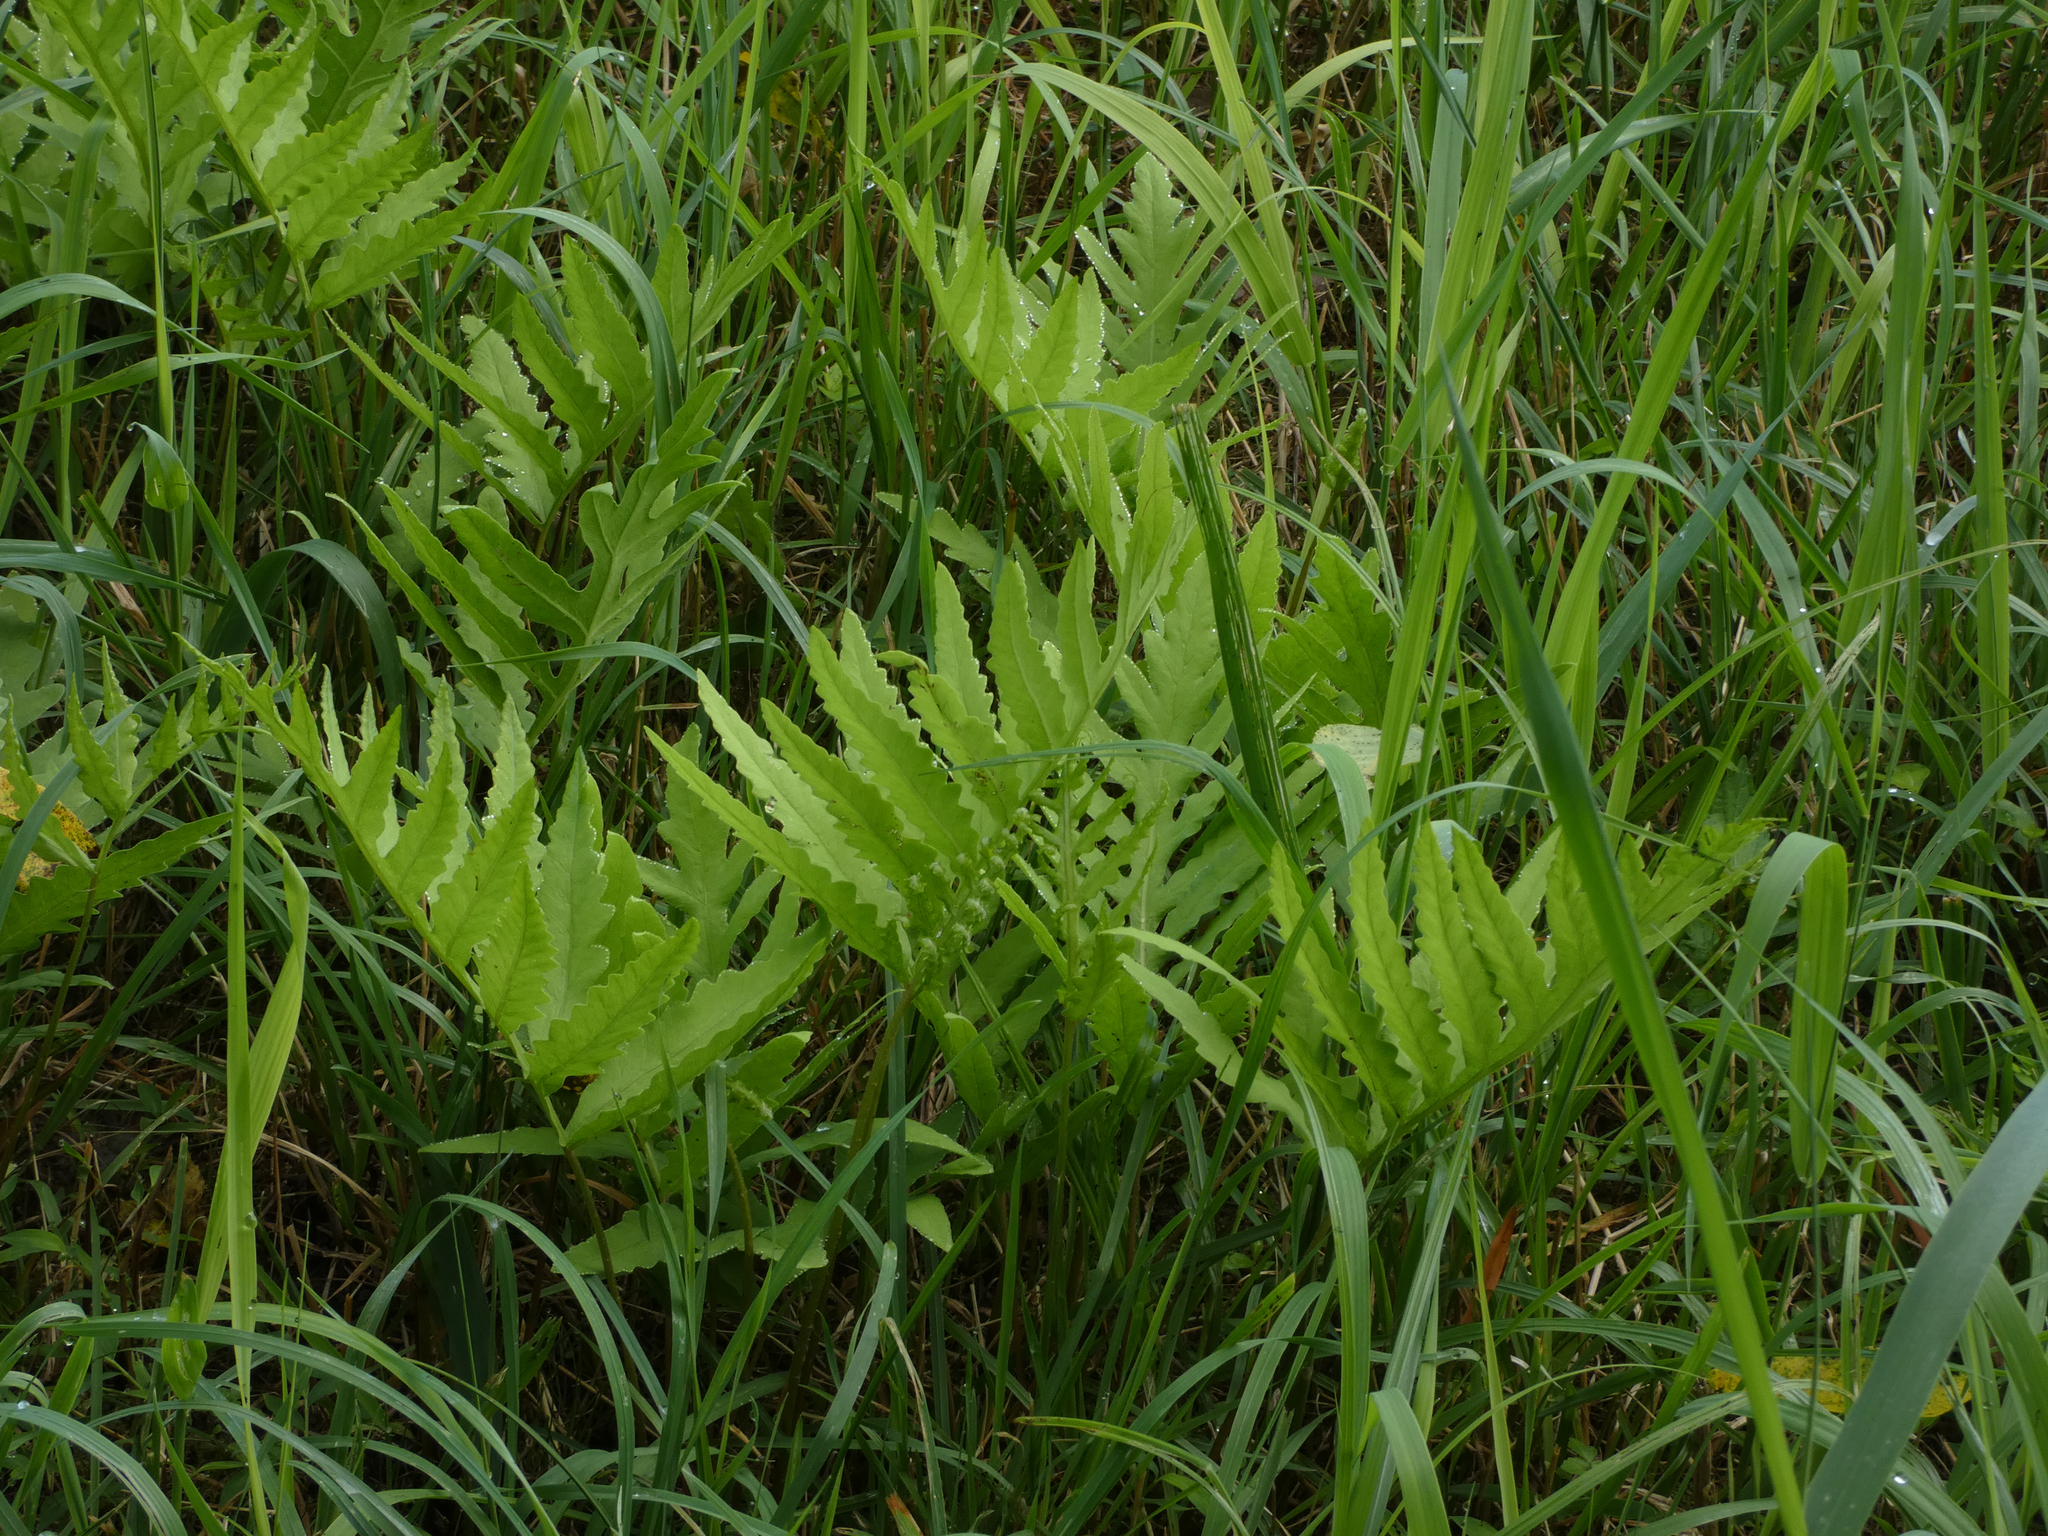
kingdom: Plantae
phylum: Tracheophyta
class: Polypodiopsida
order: Polypodiales
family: Onocleaceae
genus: Onoclea
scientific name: Onoclea sensibilis
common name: Sensitive fern
